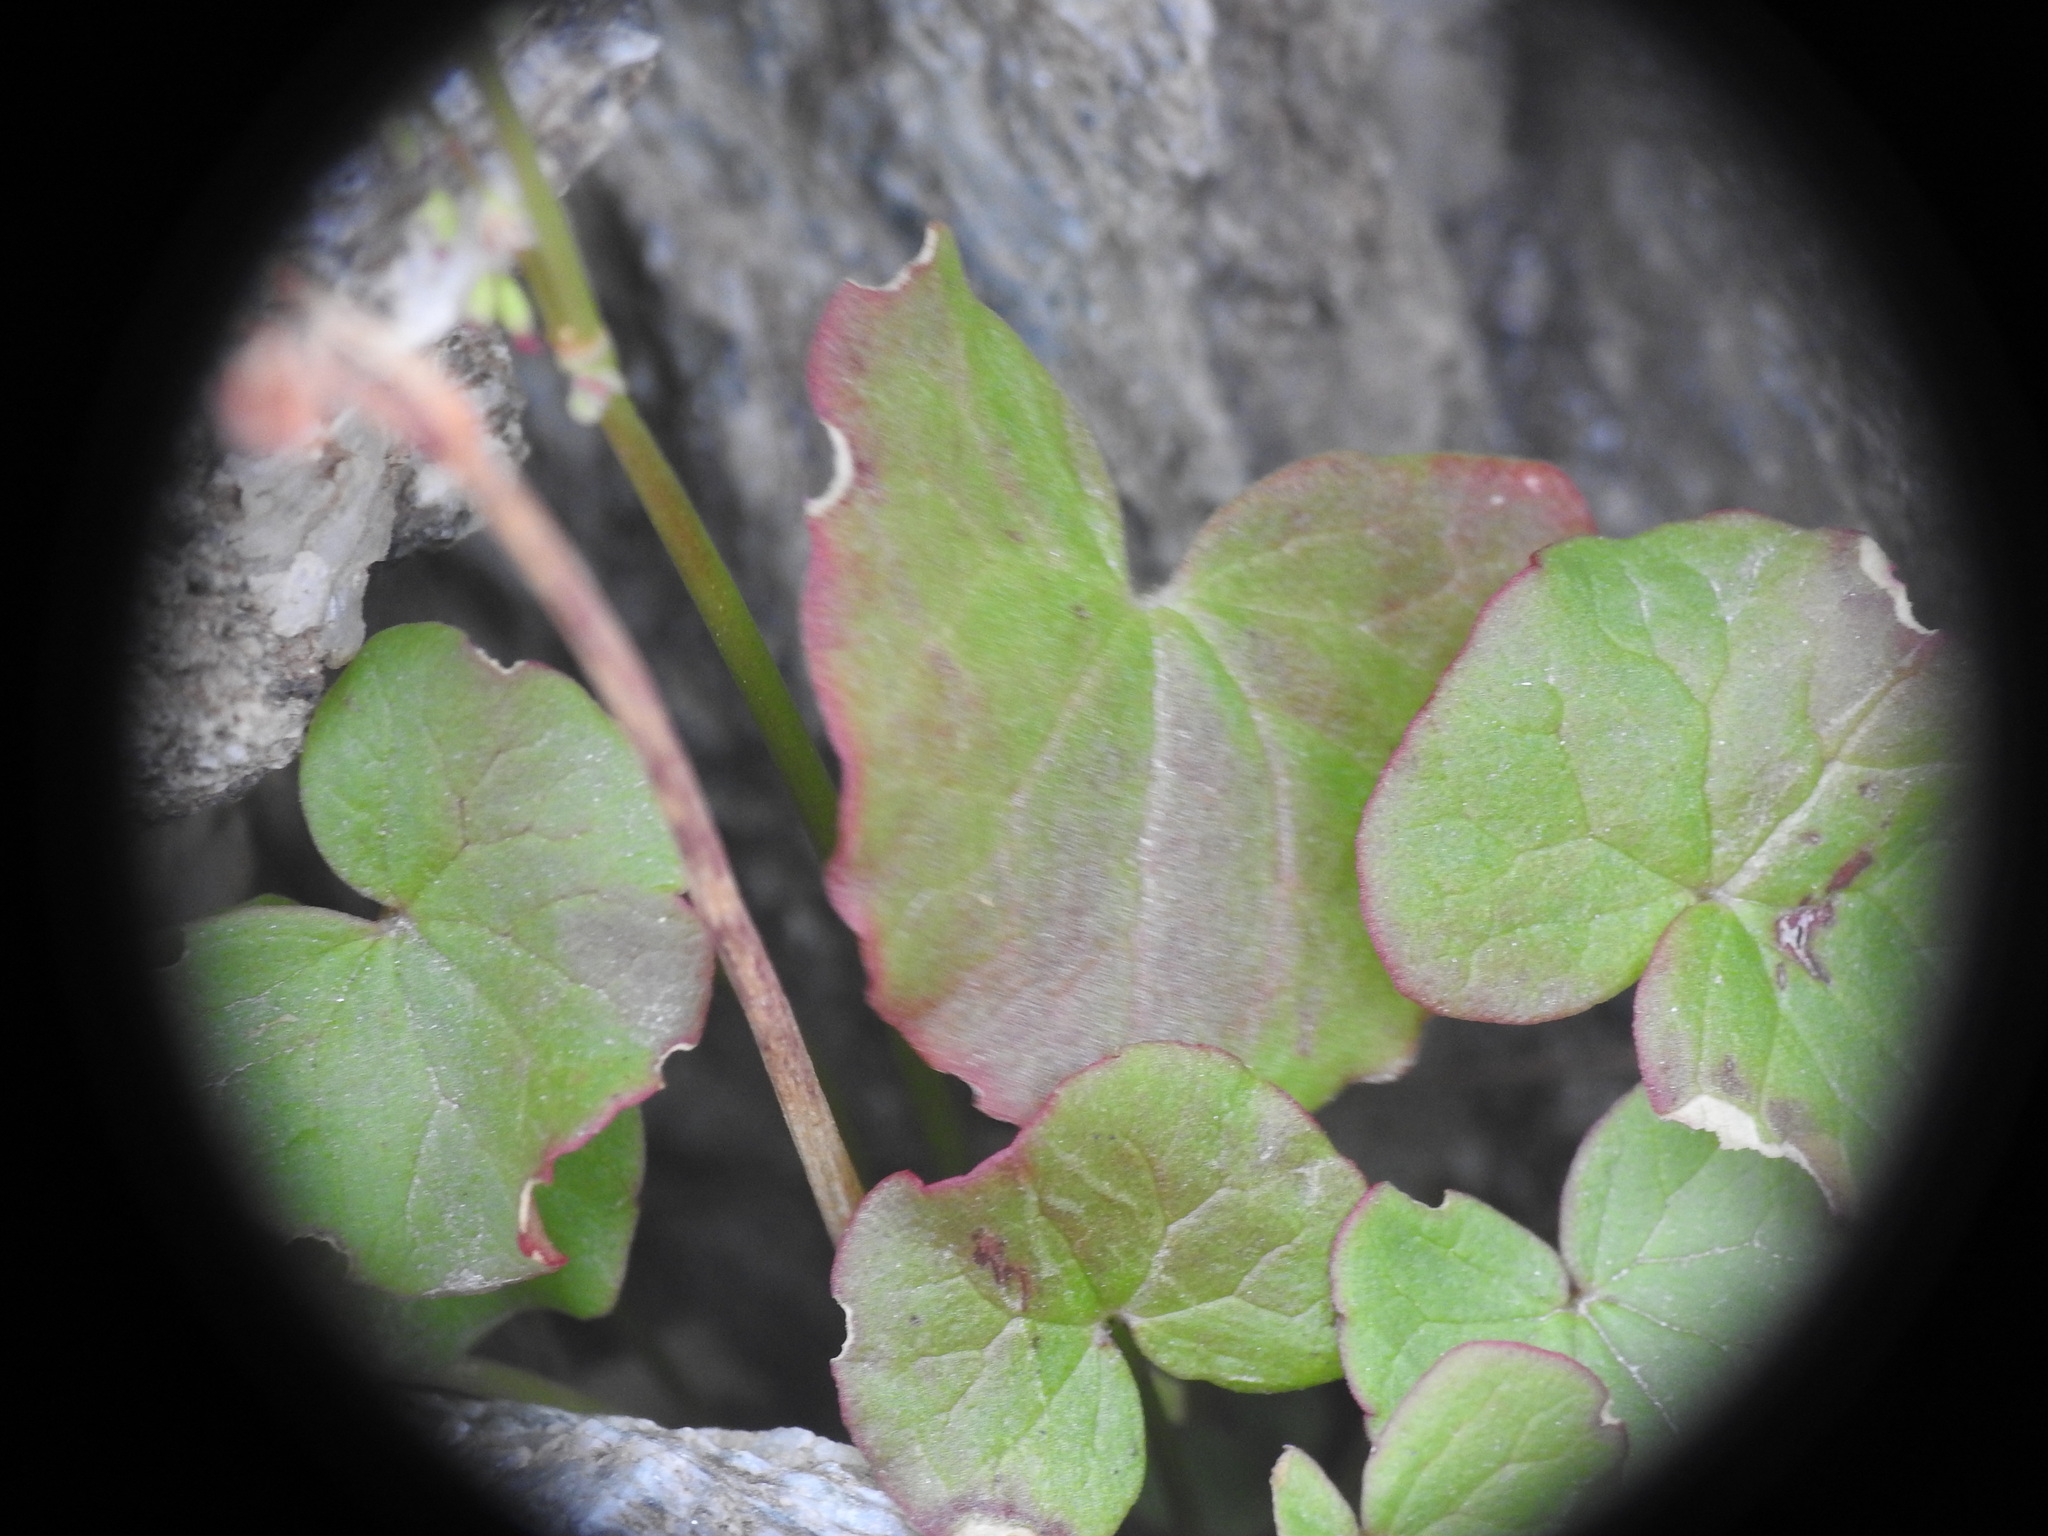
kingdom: Plantae
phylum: Tracheophyta
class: Magnoliopsida
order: Caryophyllales
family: Polygonaceae
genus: Oxyria
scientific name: Oxyria digyna
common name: Alpine mountain-sorrel
